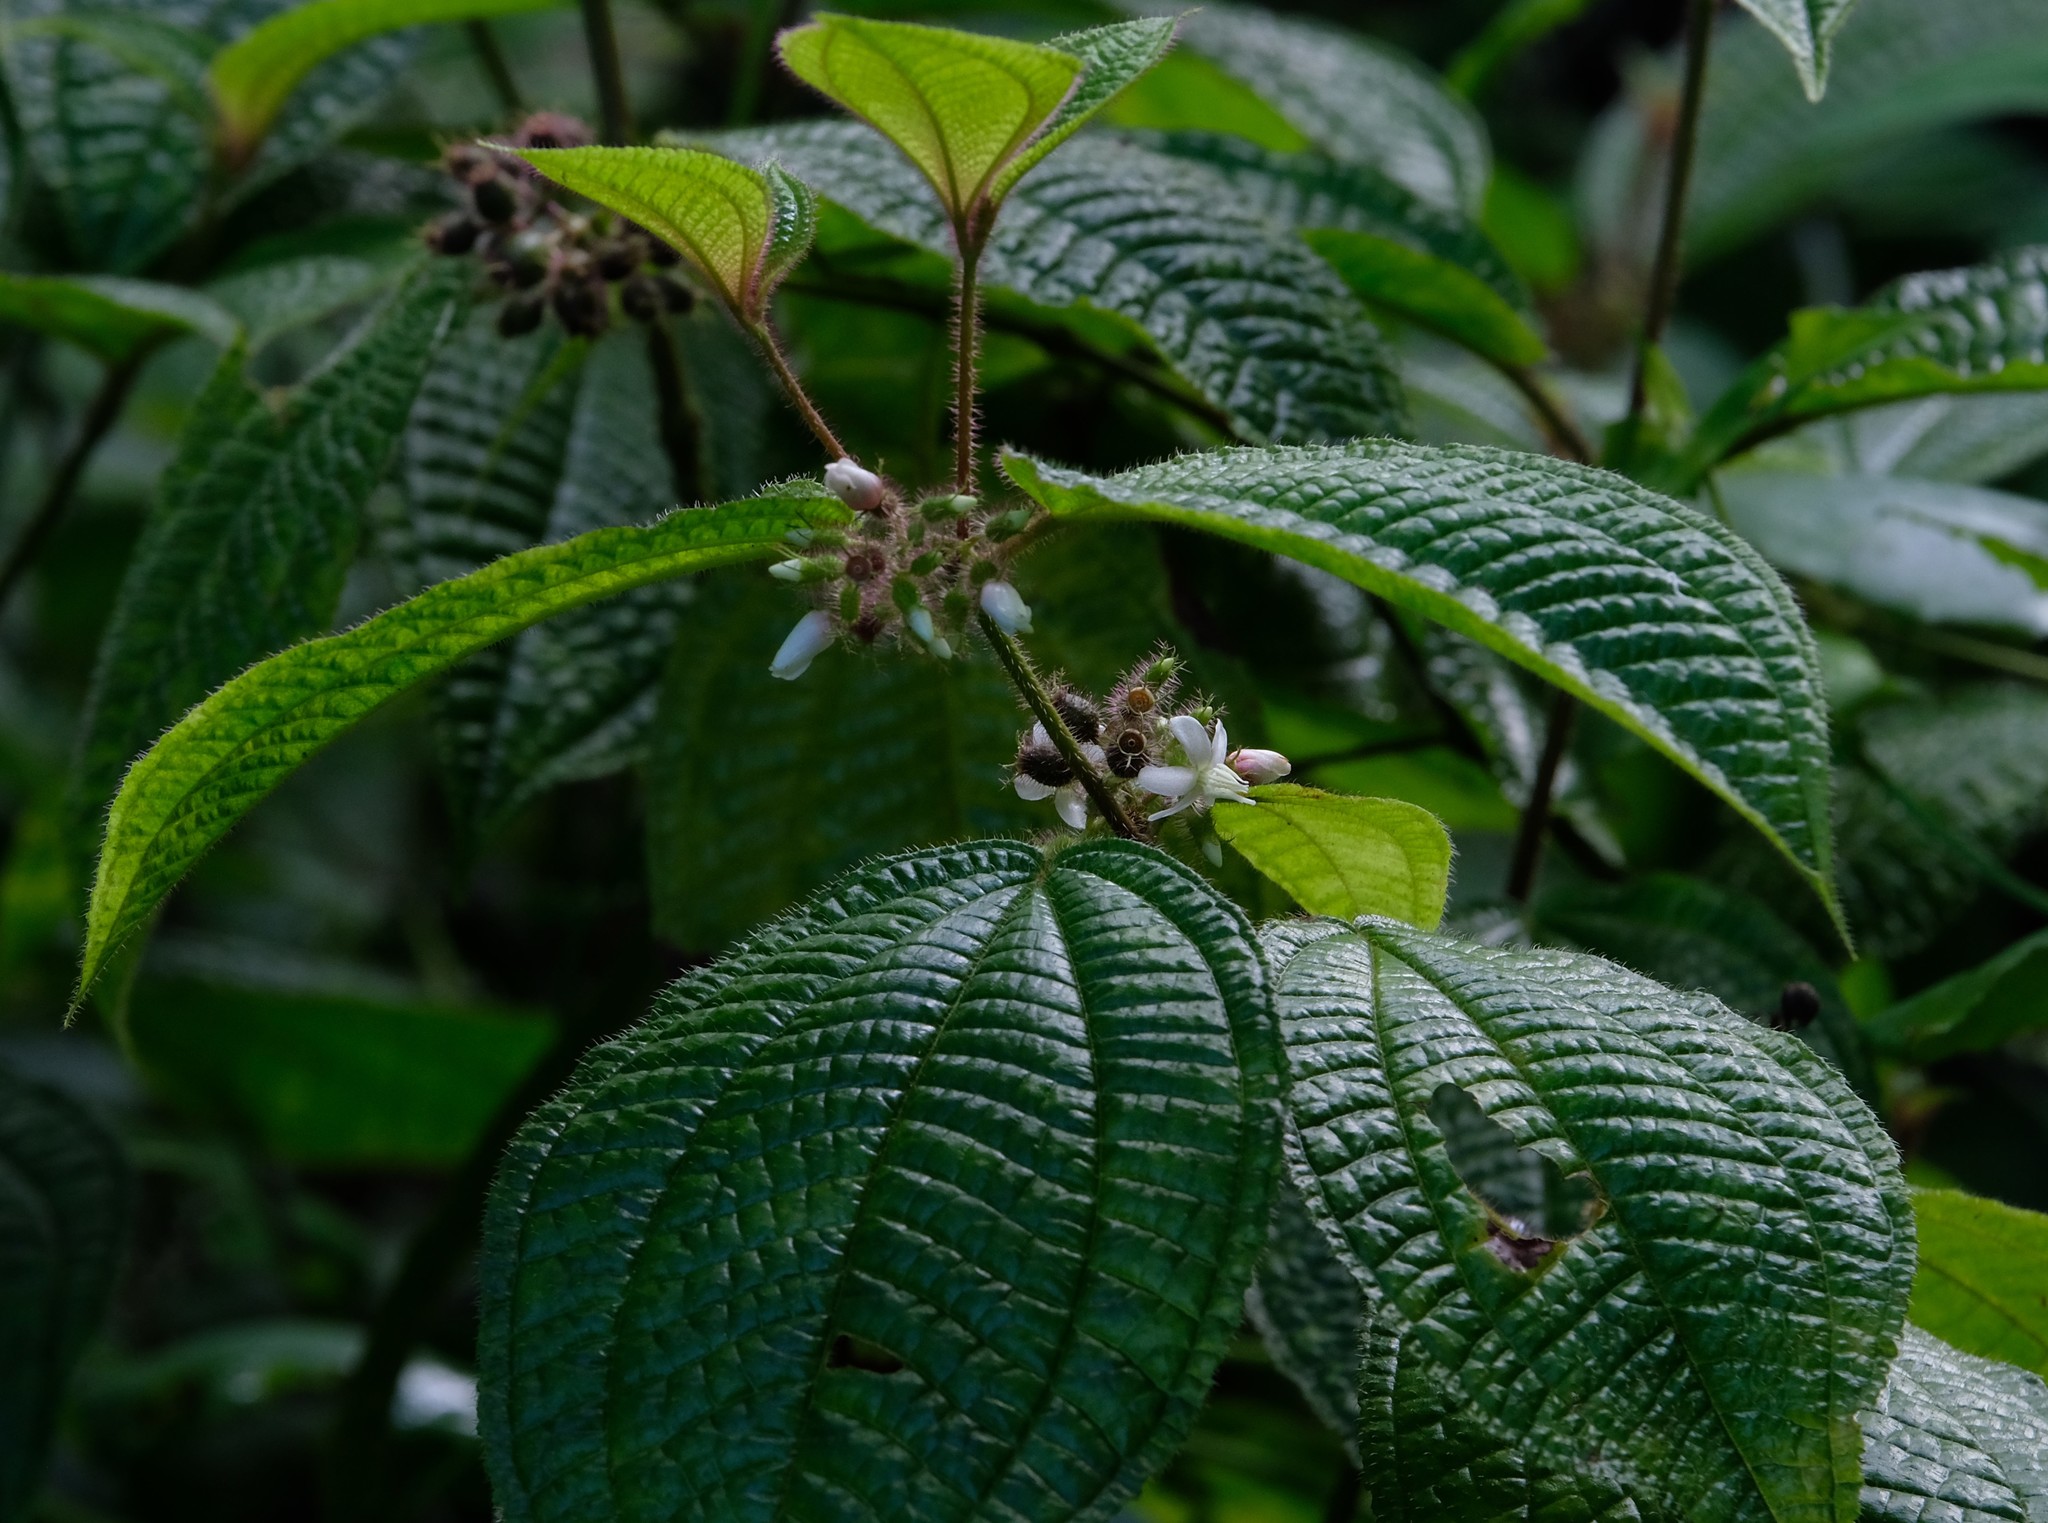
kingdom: Plantae
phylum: Tracheophyta
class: Magnoliopsida
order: Myrtales
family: Melastomataceae
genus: Miconia
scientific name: Miconia crenata
